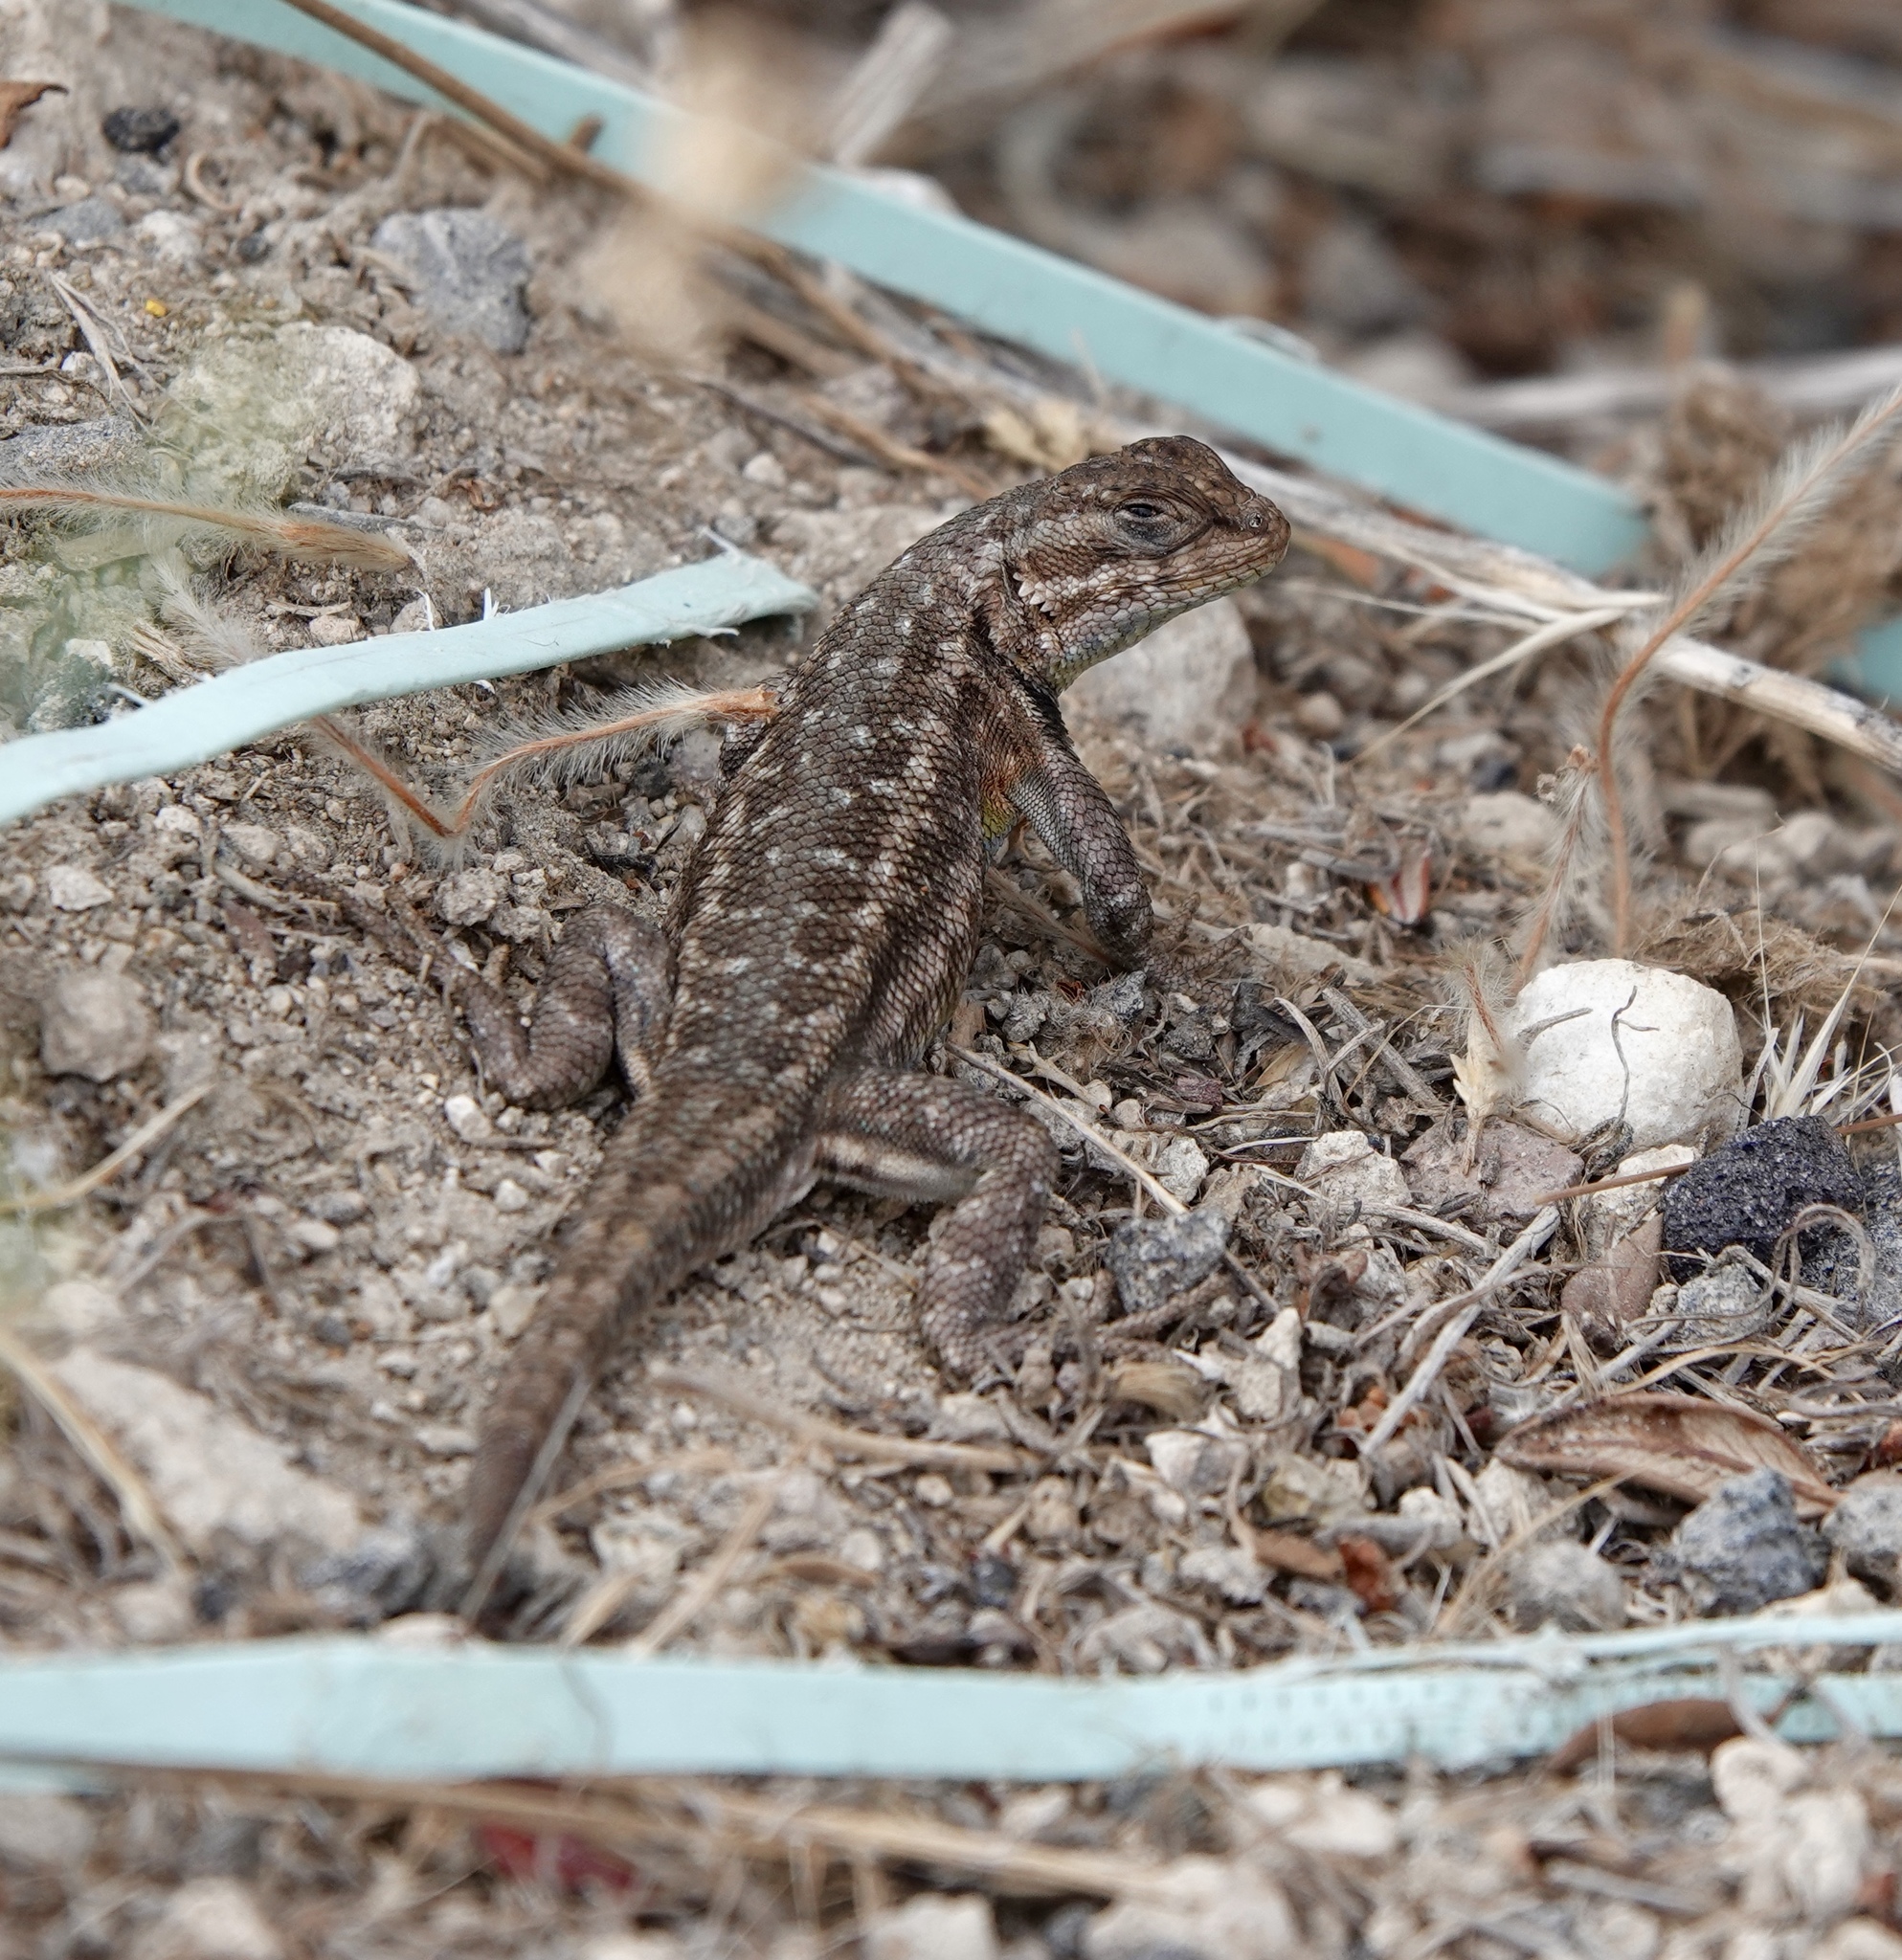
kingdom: Animalia
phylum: Chordata
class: Squamata
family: Phrynosomatidae
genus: Sceloporus
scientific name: Sceloporus graciosus
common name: Sagebrush lizard
